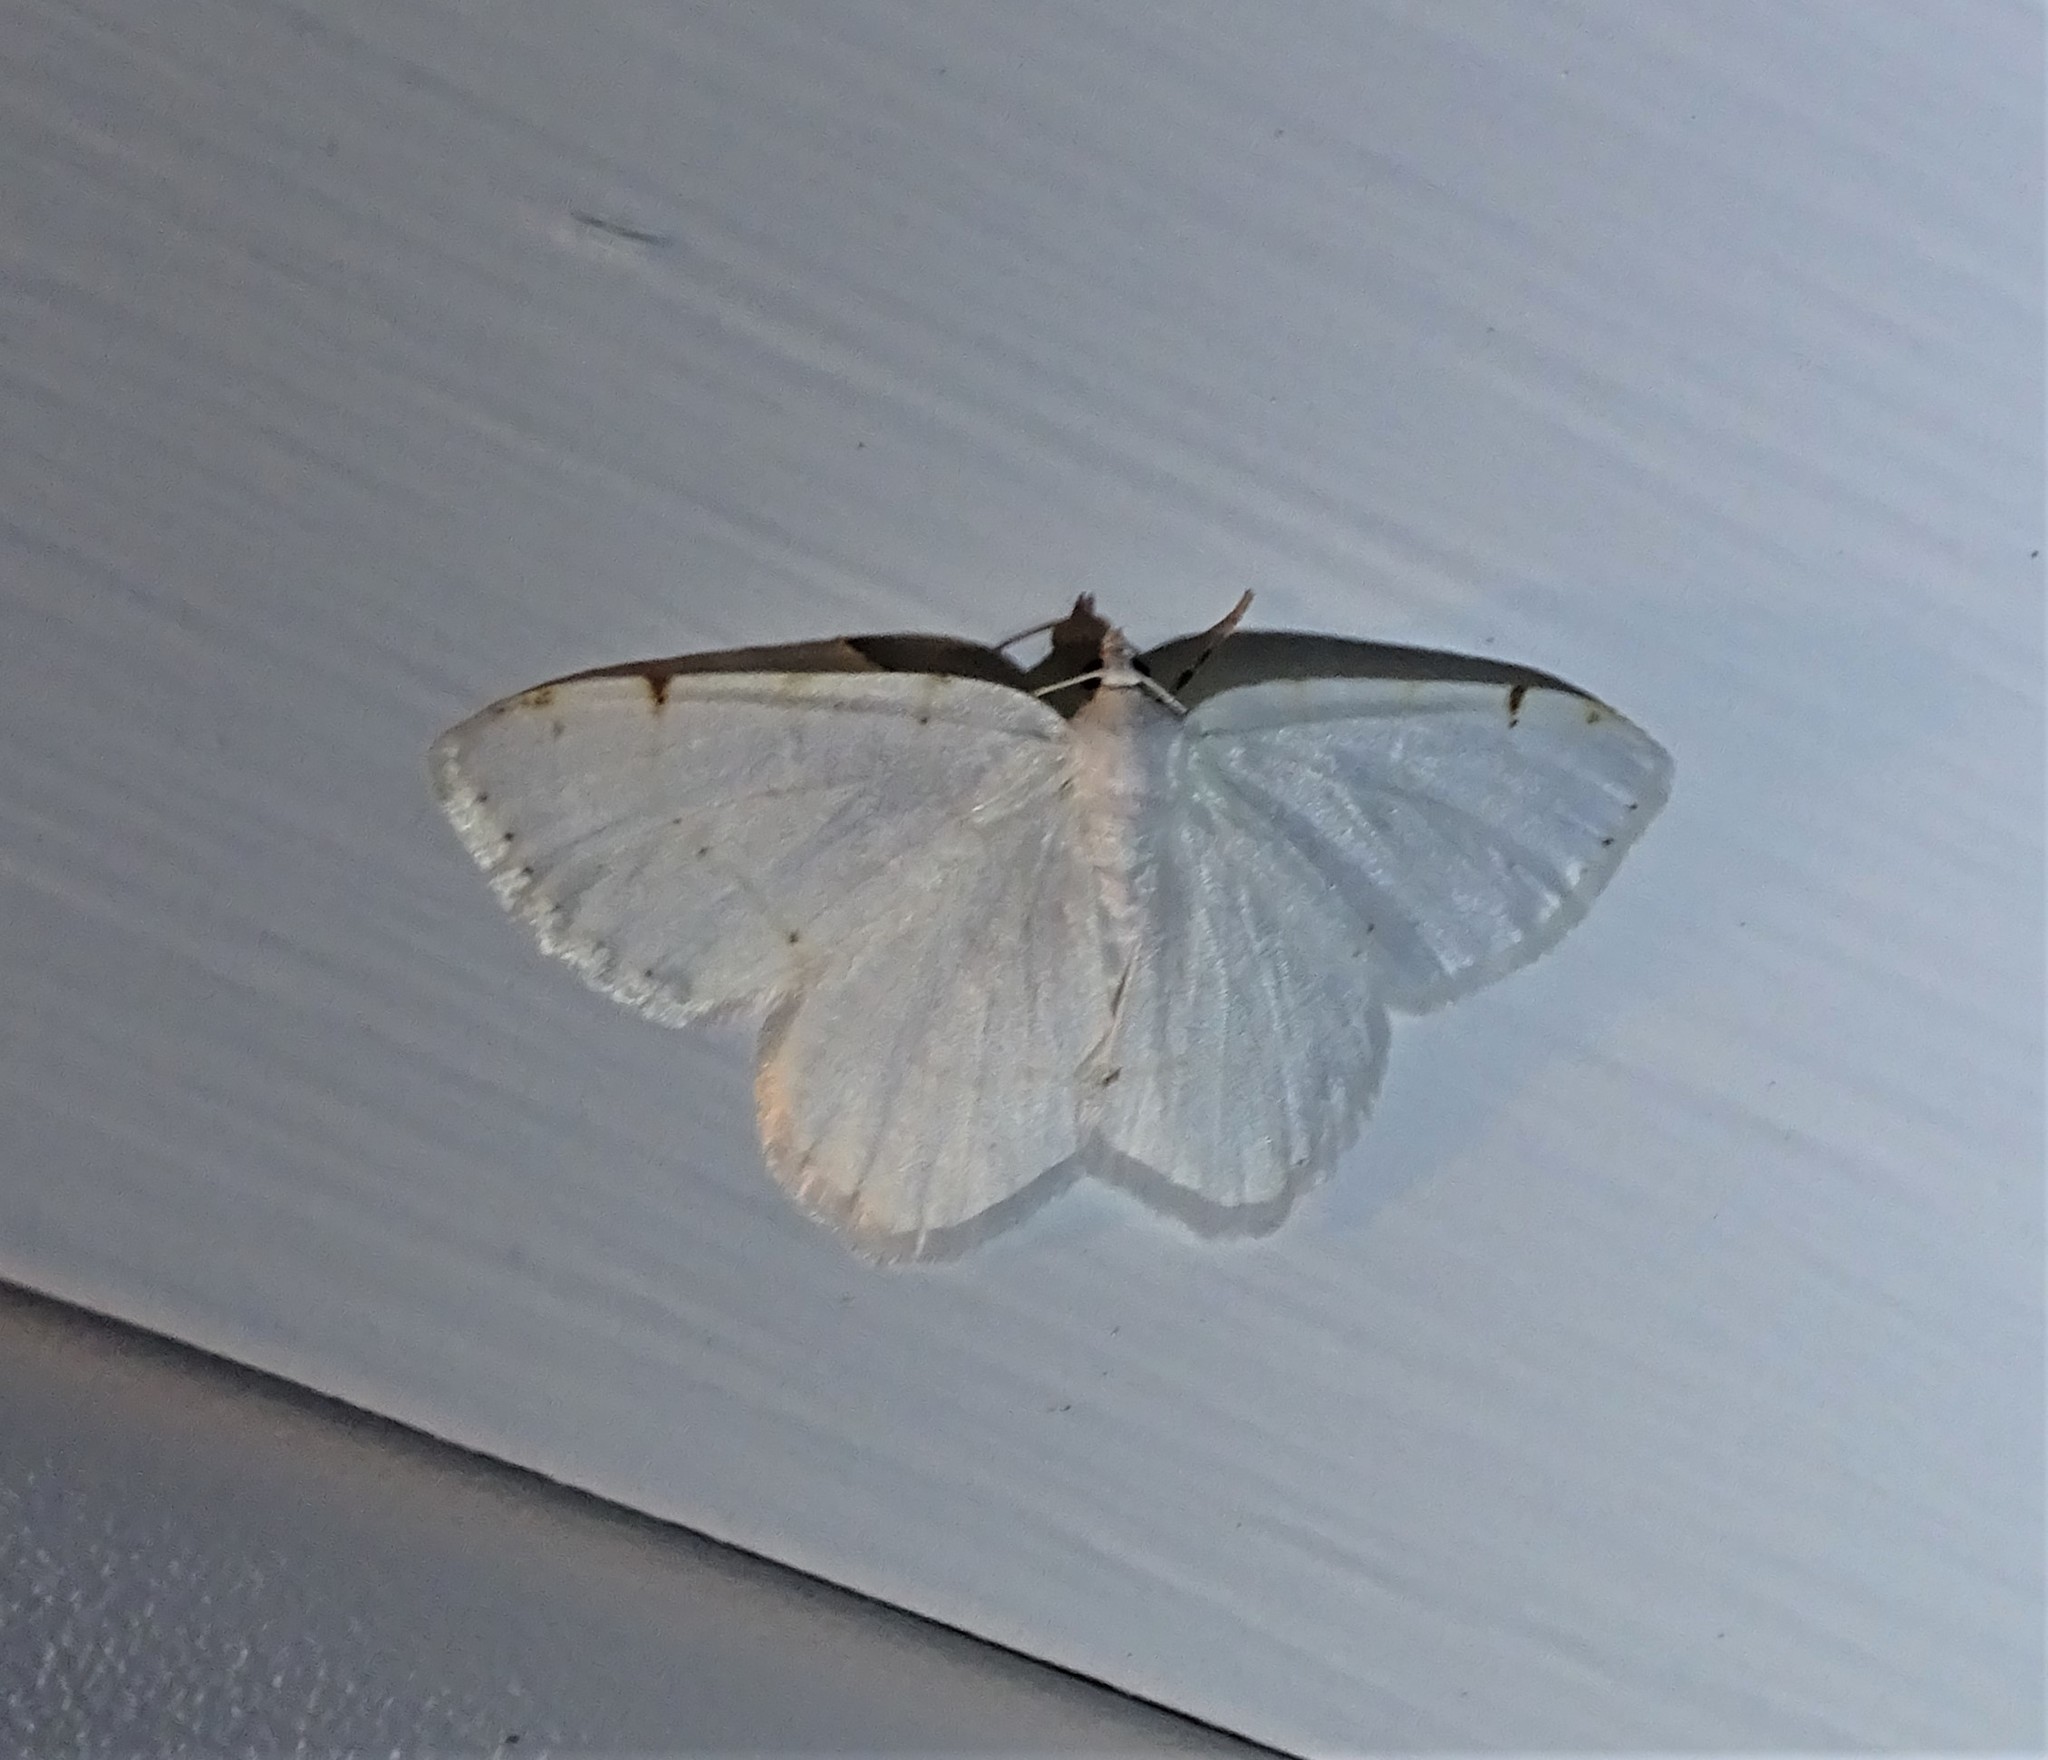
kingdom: Animalia
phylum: Arthropoda
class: Insecta
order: Lepidoptera
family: Geometridae
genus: Macaria
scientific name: Macaria pustularia
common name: Lesser maple spanworm moth
